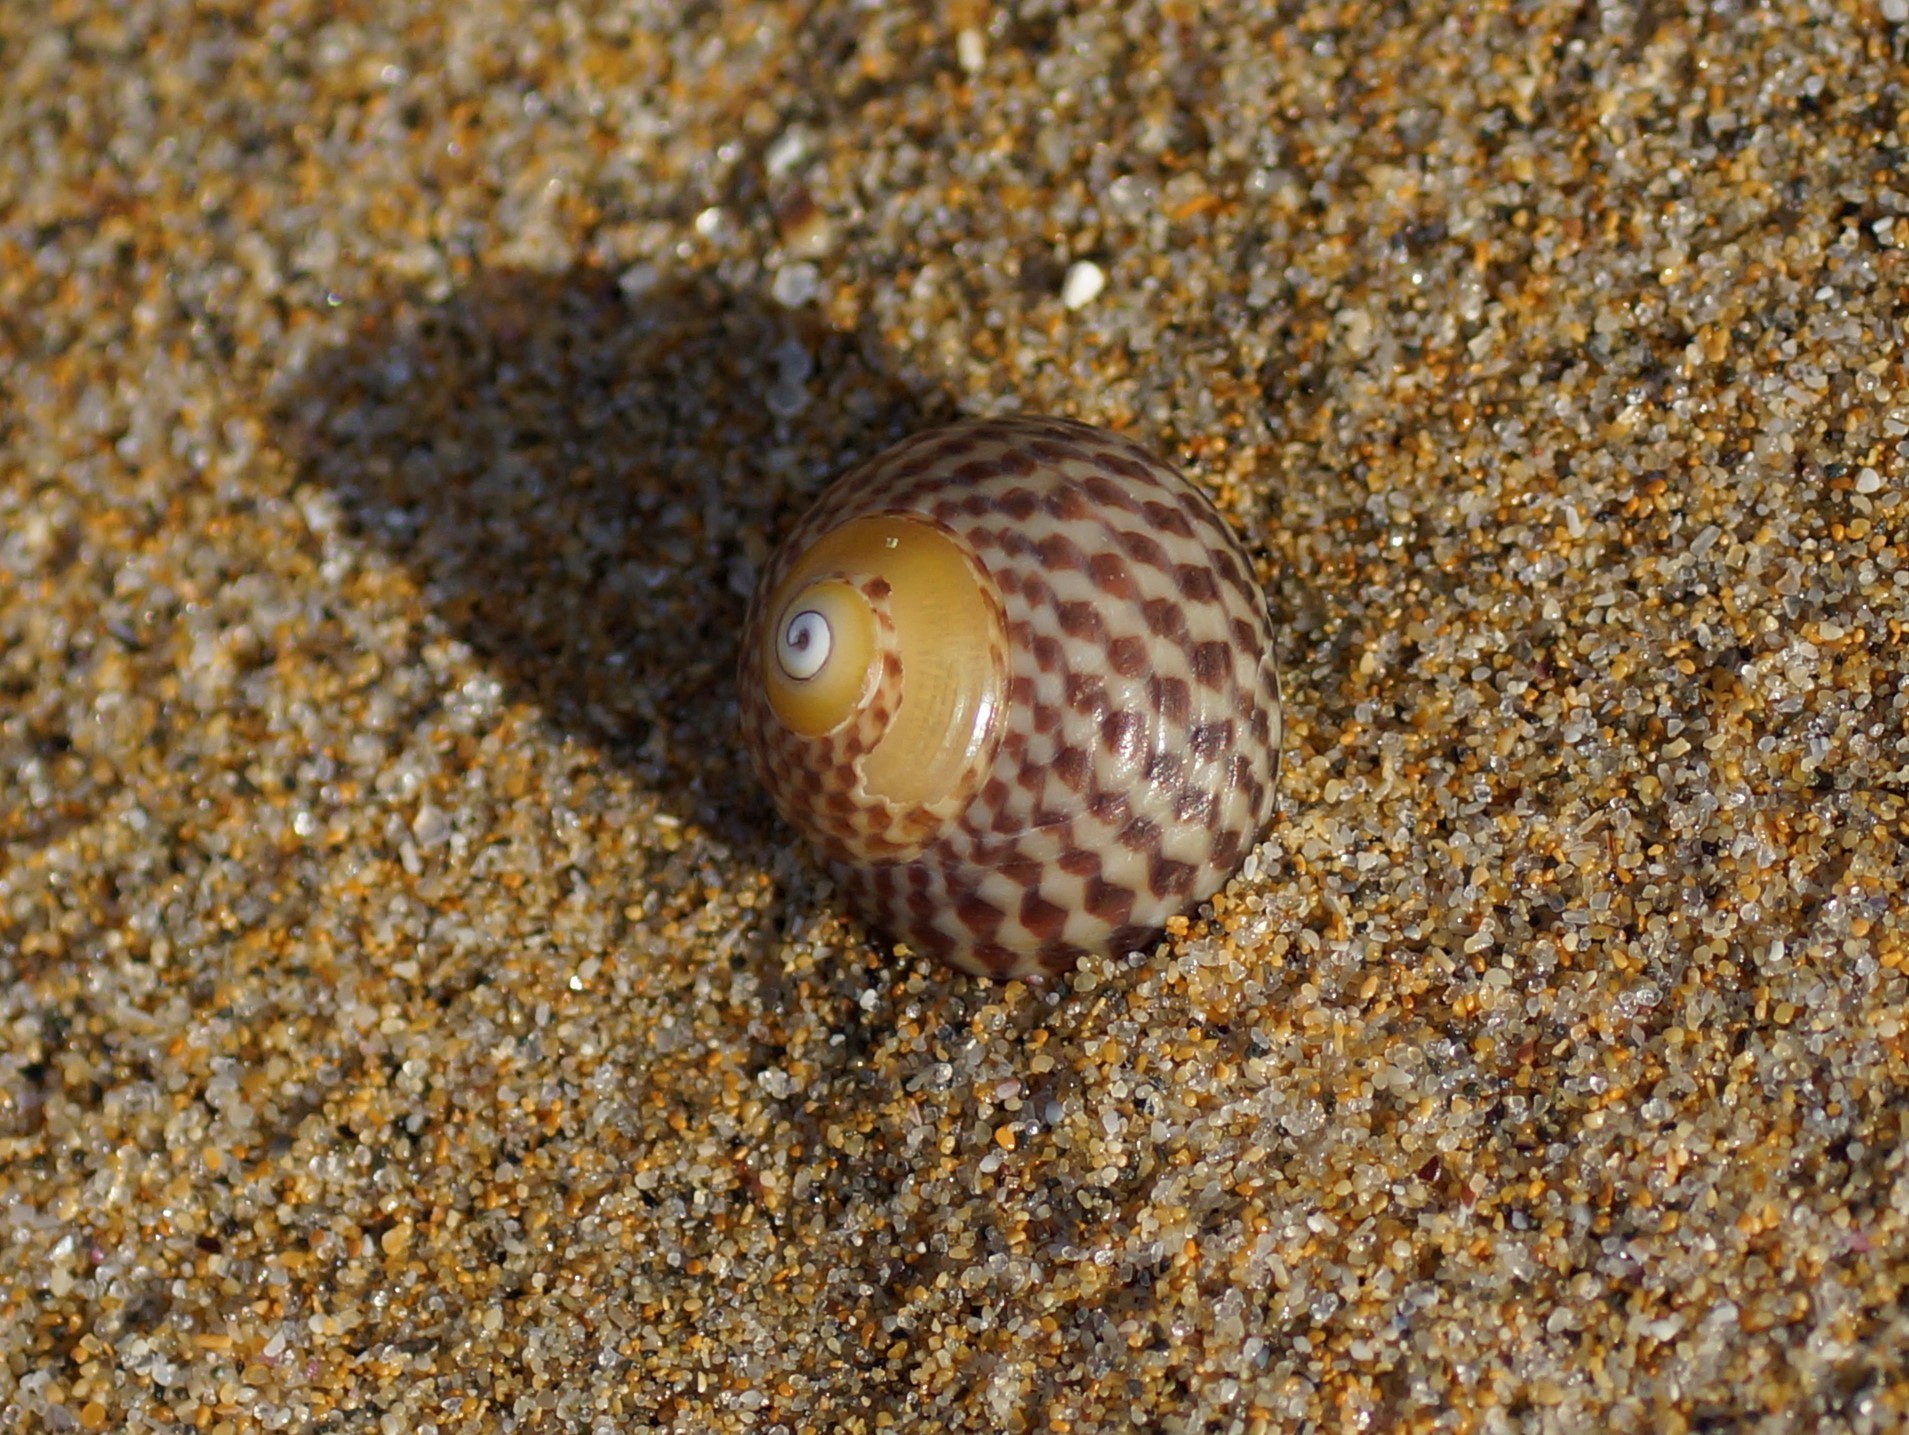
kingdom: Animalia
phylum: Mollusca
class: Gastropoda
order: Trochida
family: Trochidae
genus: Chlorodiloma
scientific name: Chlorodiloma adelaidae
